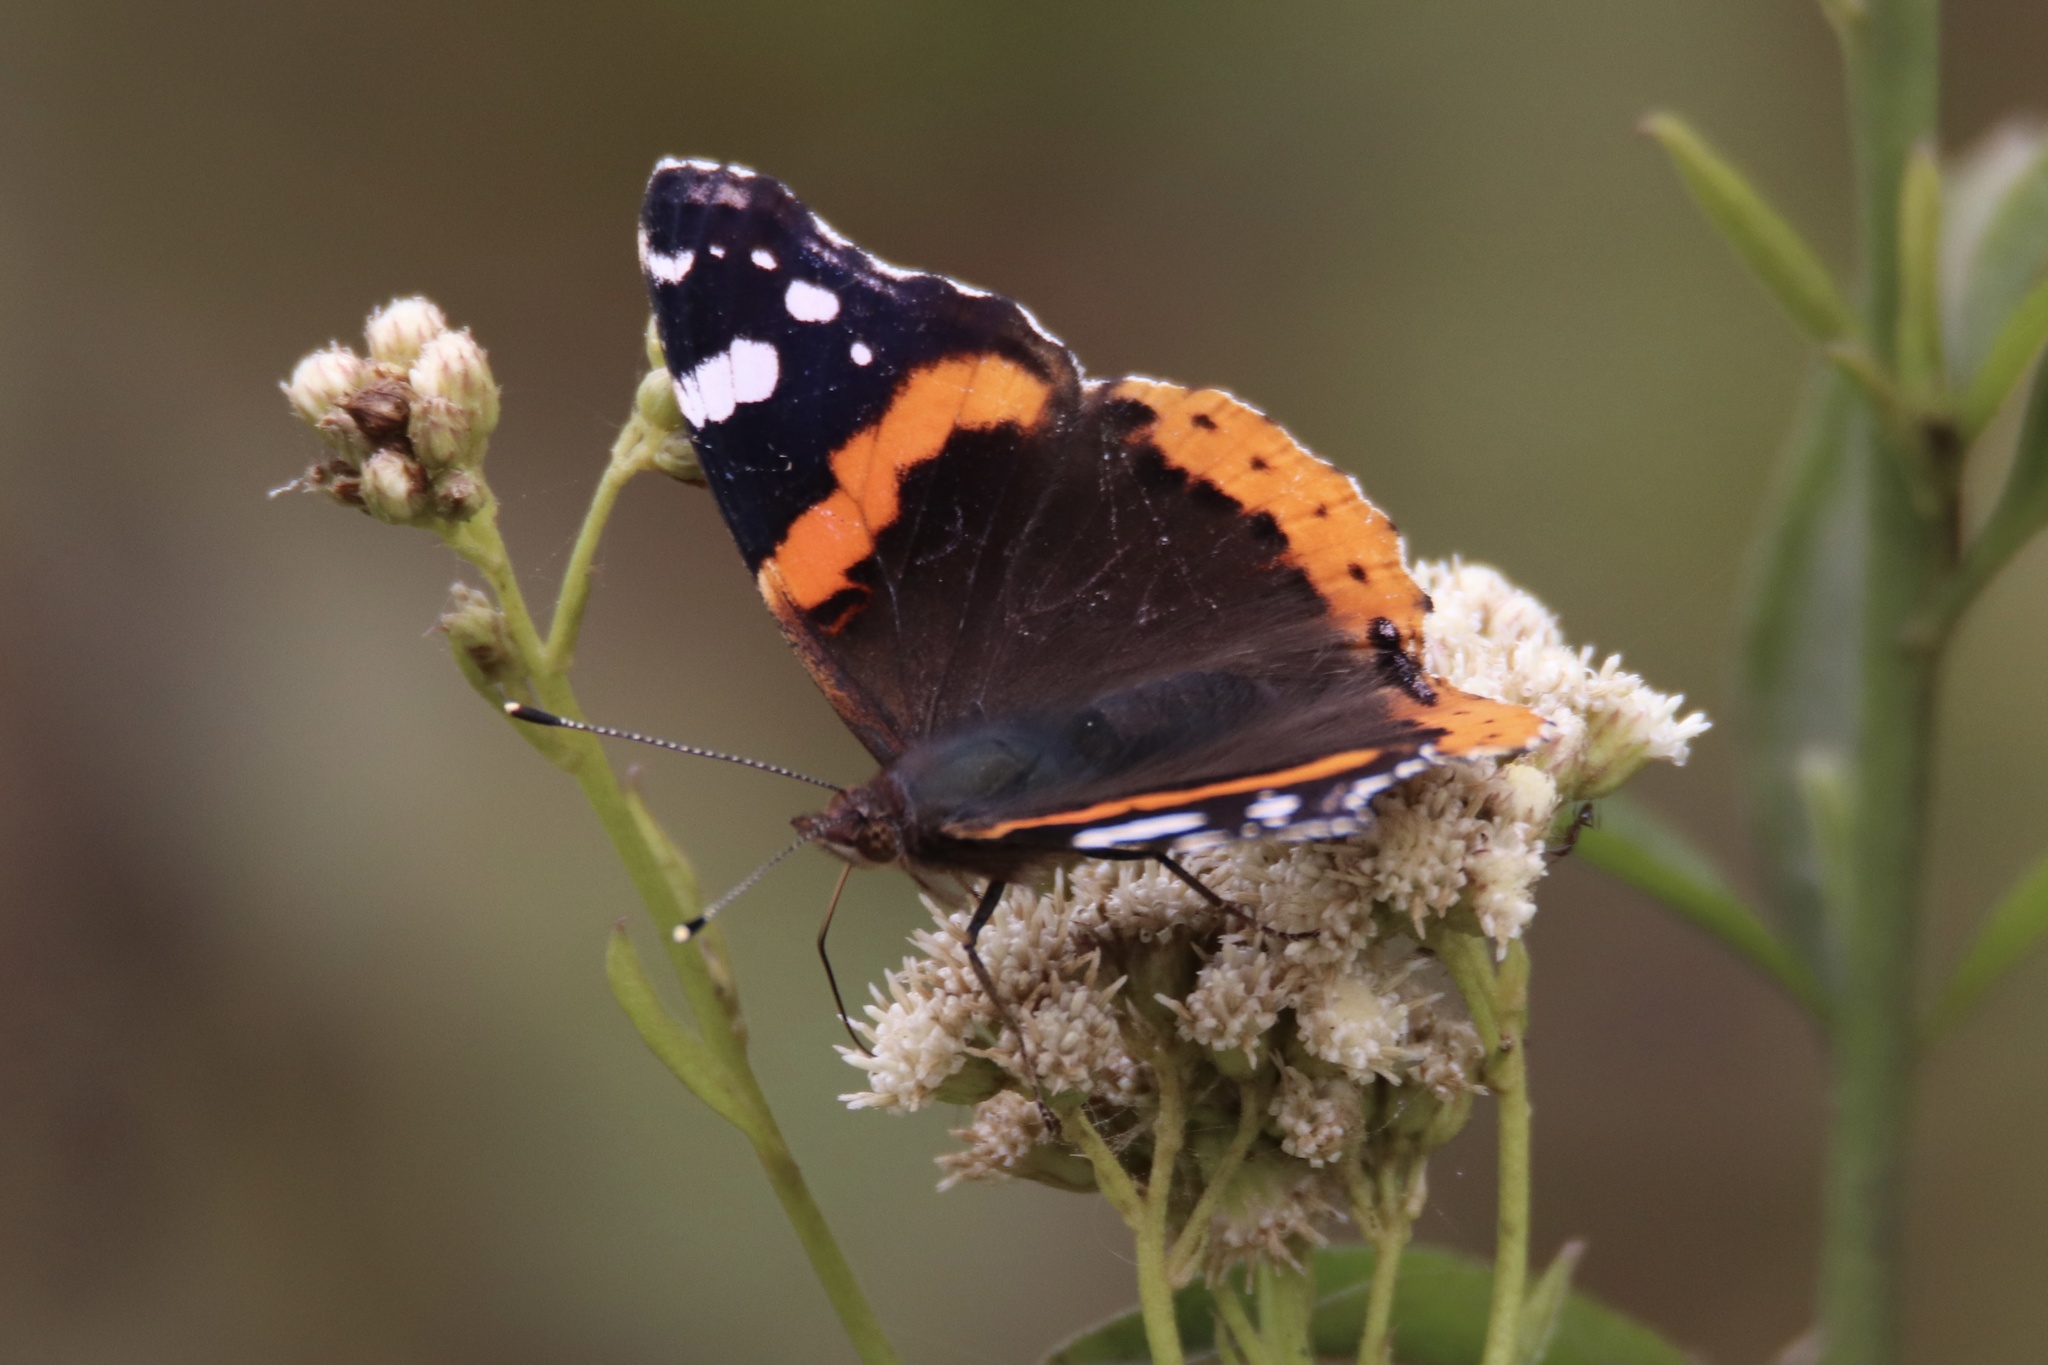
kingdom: Animalia
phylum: Arthropoda
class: Insecta
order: Lepidoptera
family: Nymphalidae
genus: Vanessa
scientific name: Vanessa atalanta
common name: Red admiral
